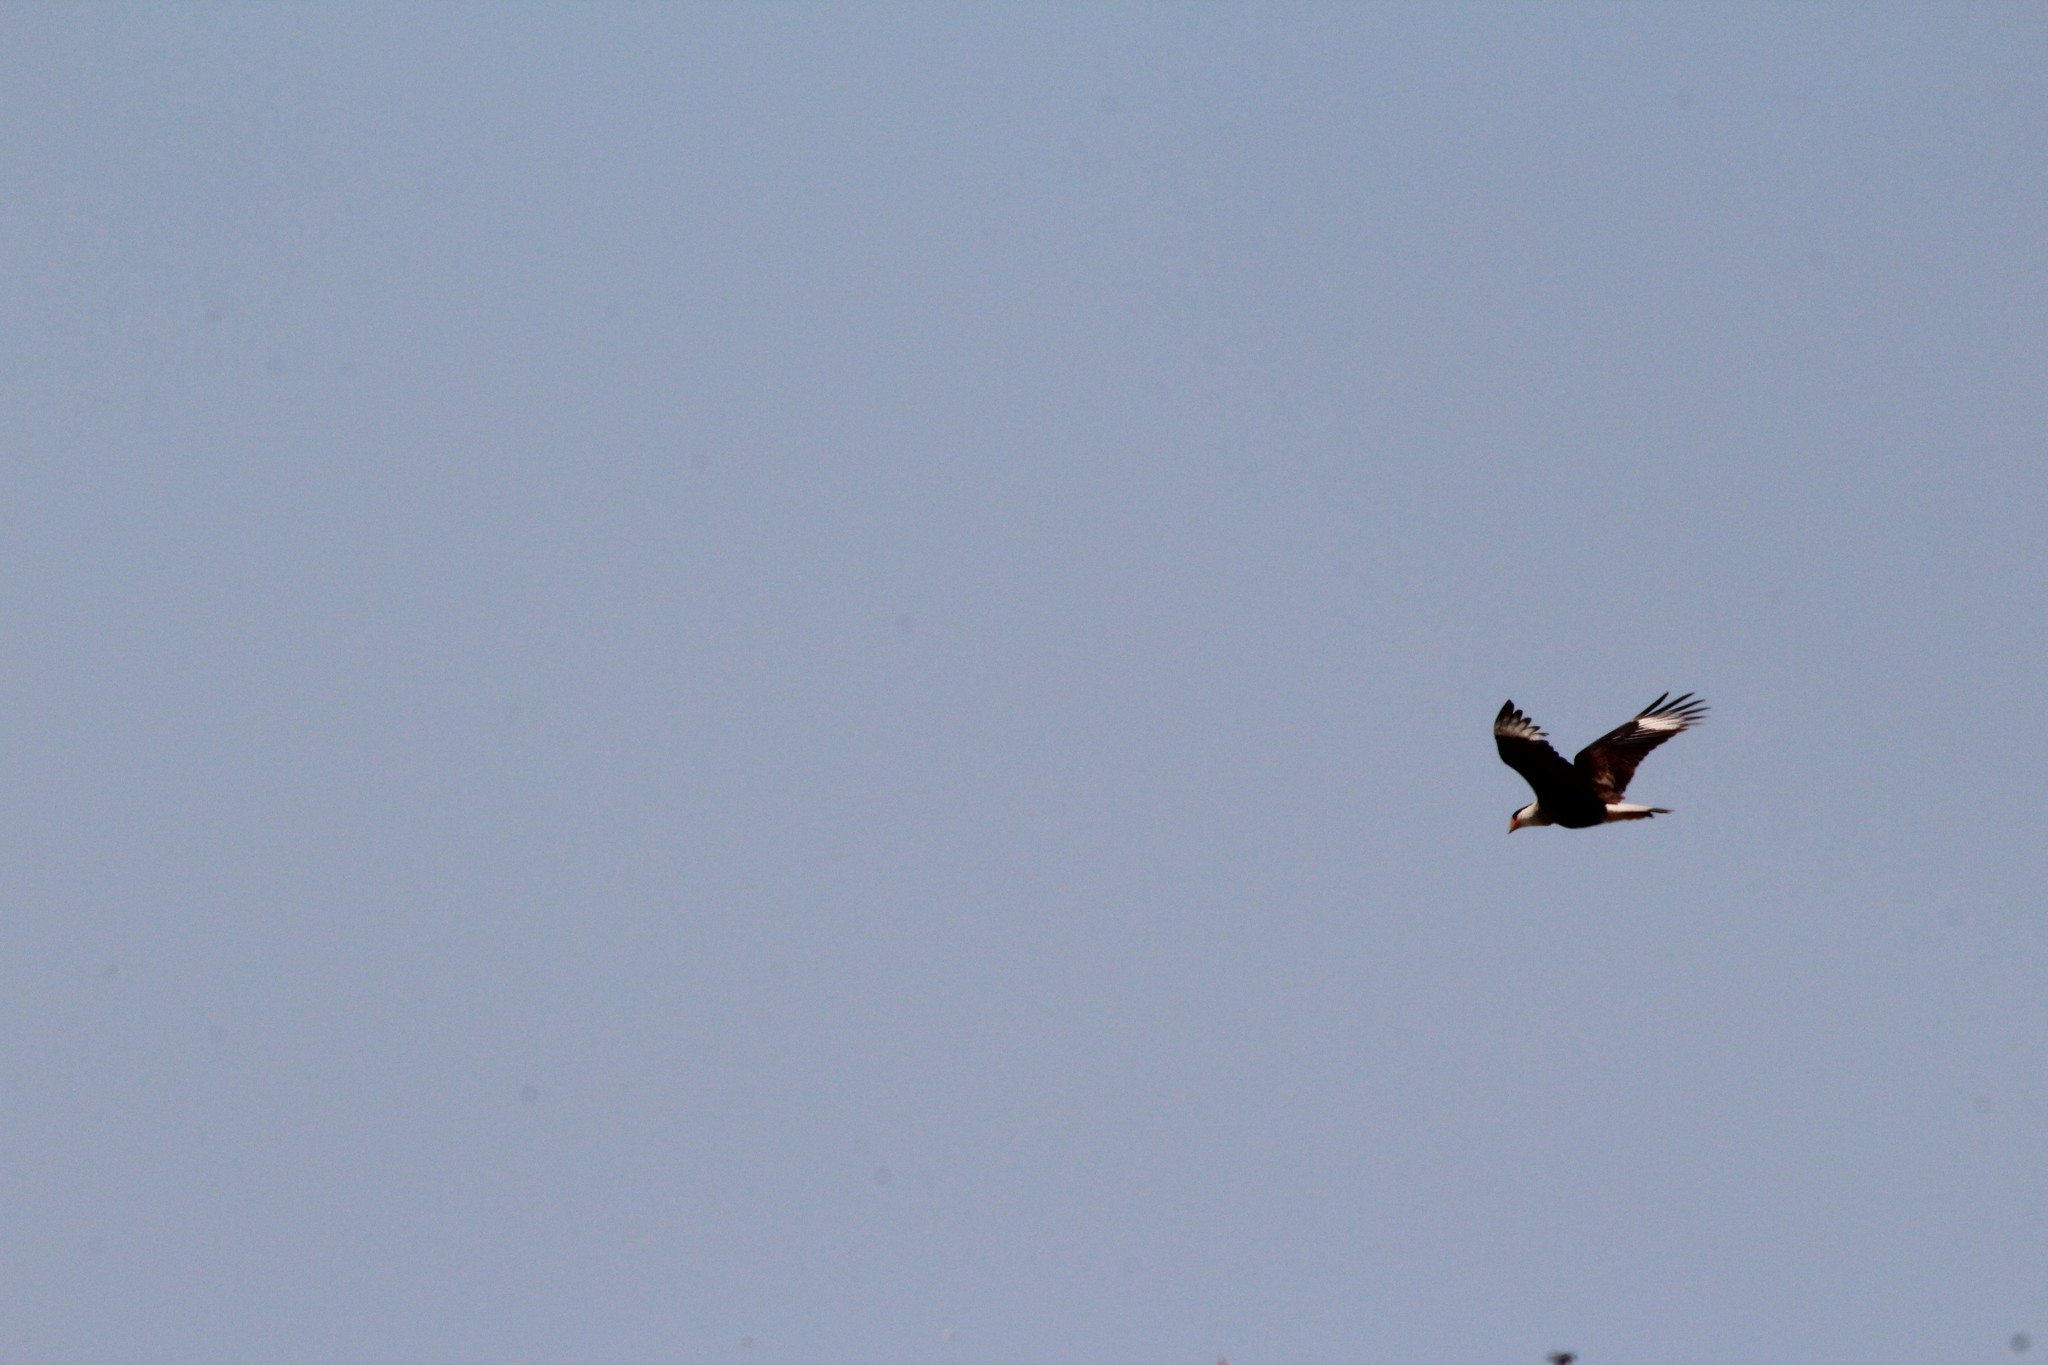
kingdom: Animalia
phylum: Chordata
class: Aves
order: Falconiformes
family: Falconidae
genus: Caracara
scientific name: Caracara plancus
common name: Southern caracara
